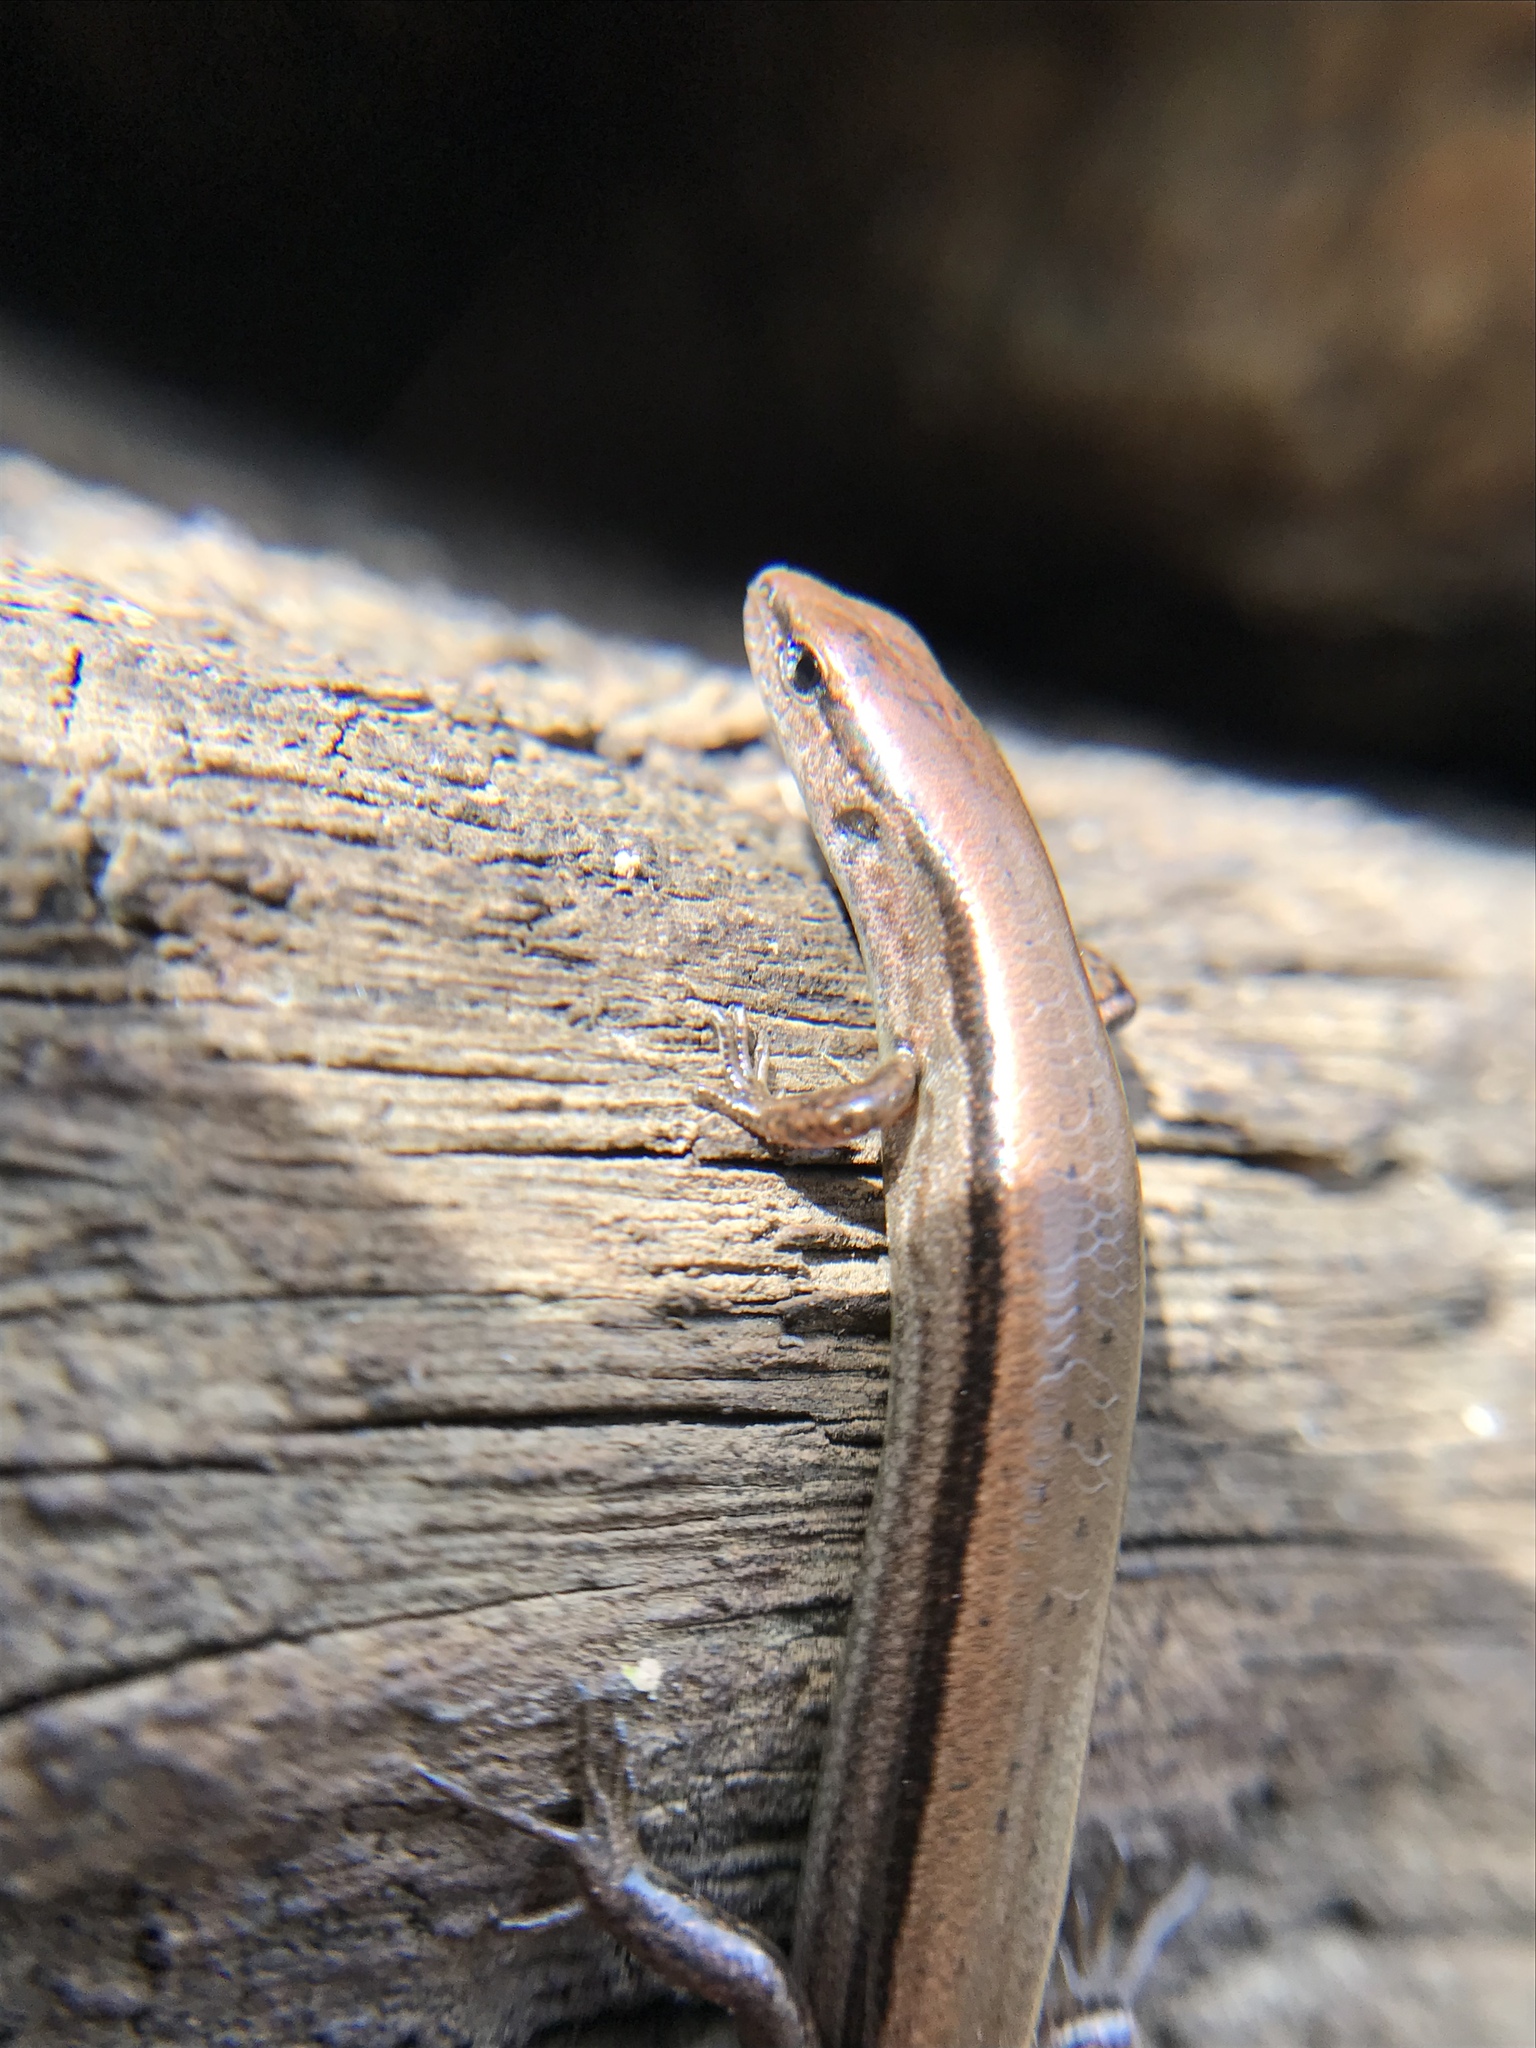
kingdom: Animalia
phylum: Chordata
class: Squamata
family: Scincidae
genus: Scincella
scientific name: Scincella lateralis
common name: Ground skink
